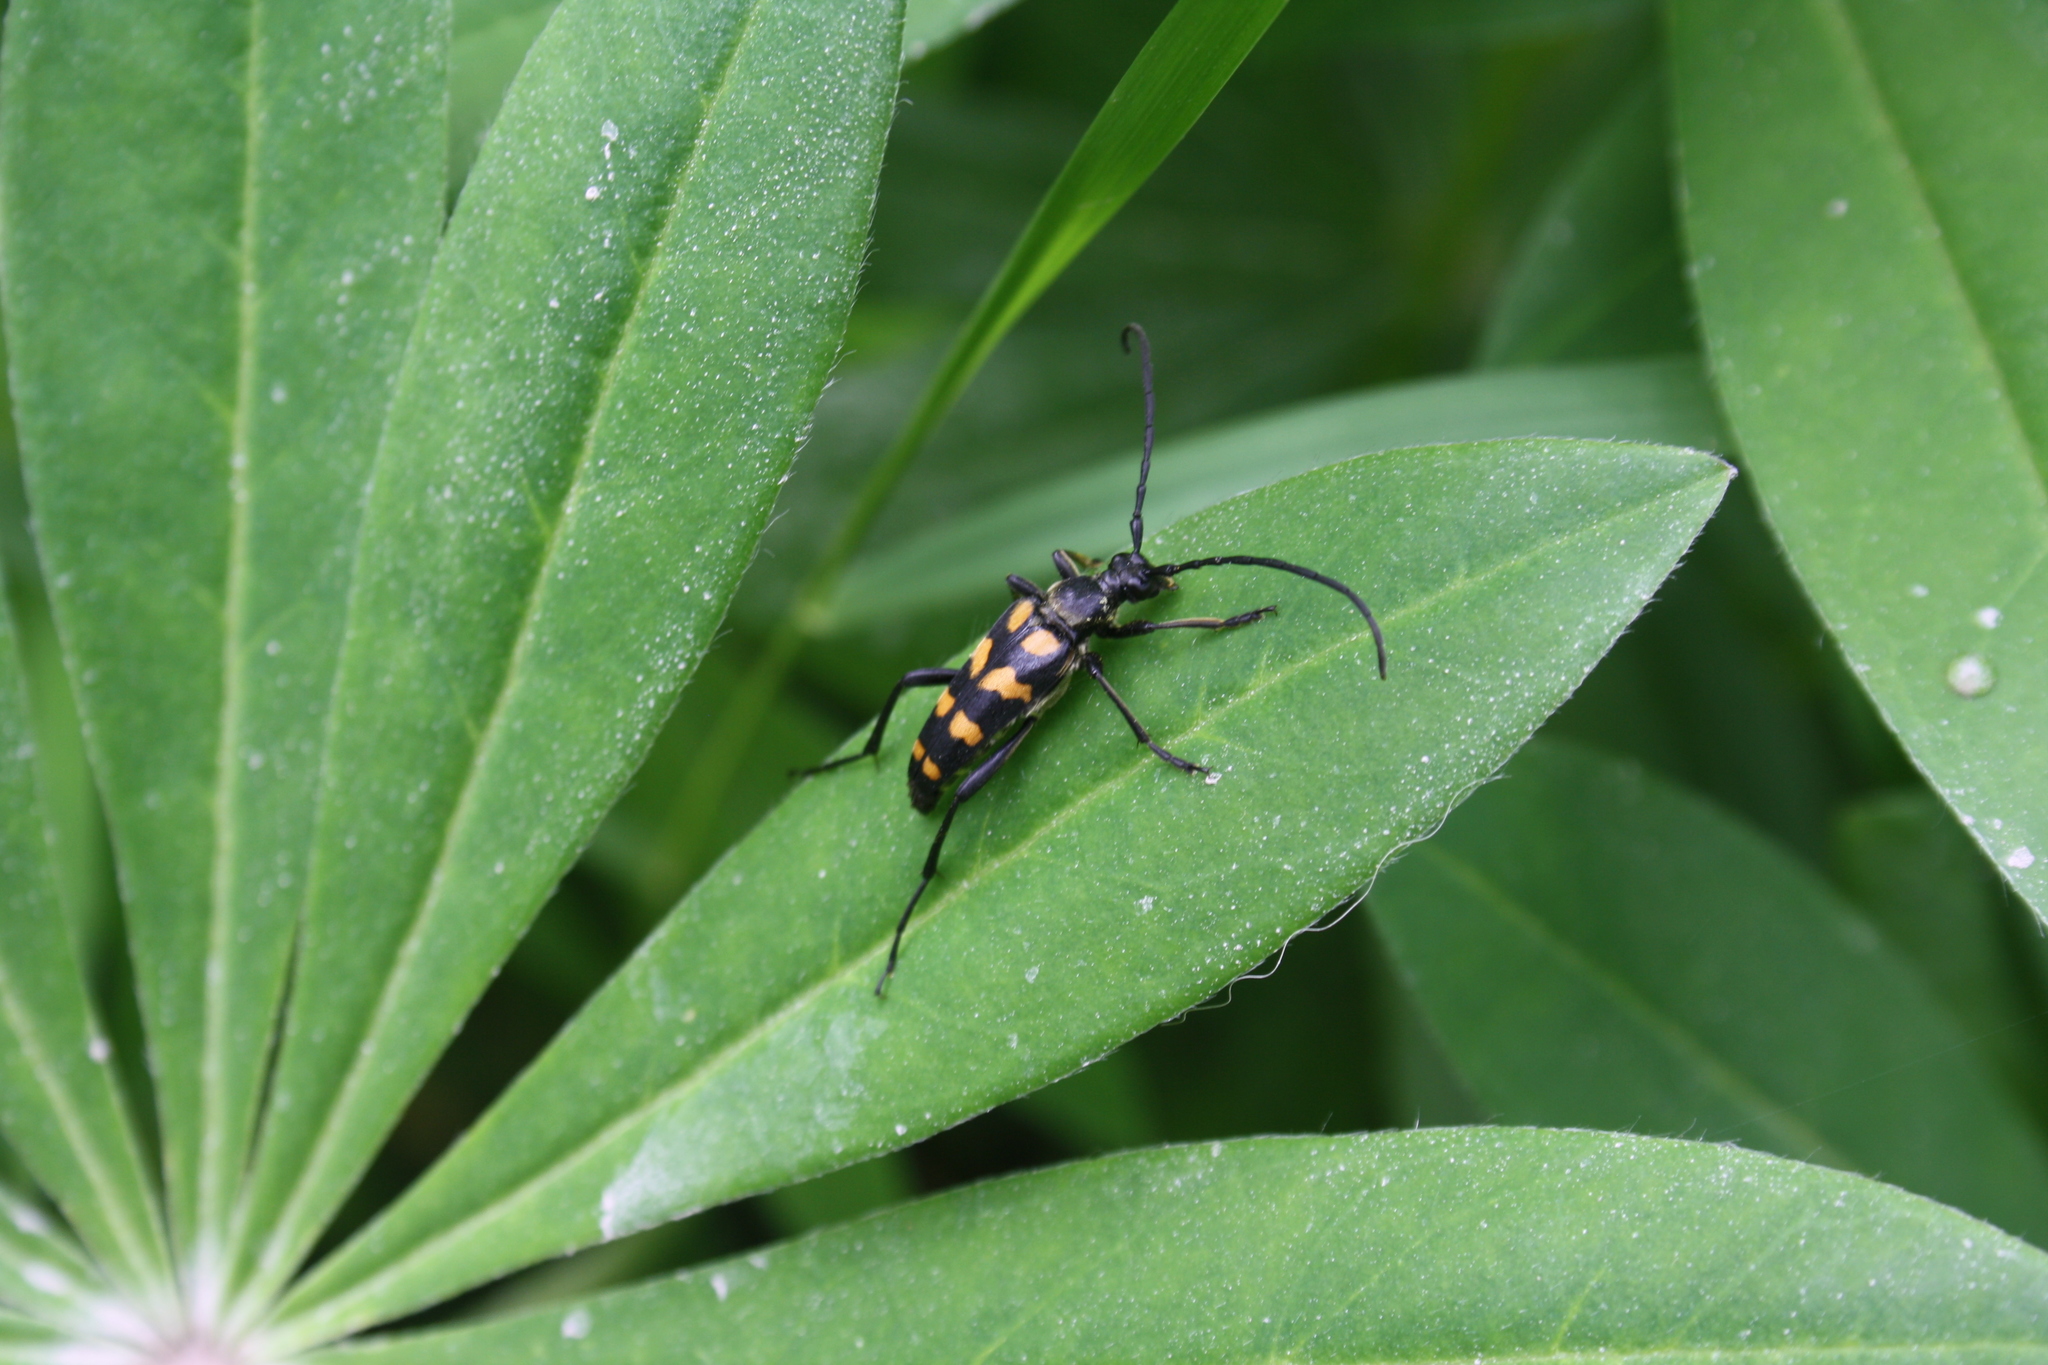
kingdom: Animalia
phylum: Arthropoda
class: Insecta
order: Coleoptera
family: Cerambycidae
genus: Leptura
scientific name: Leptura quadrifasciata
